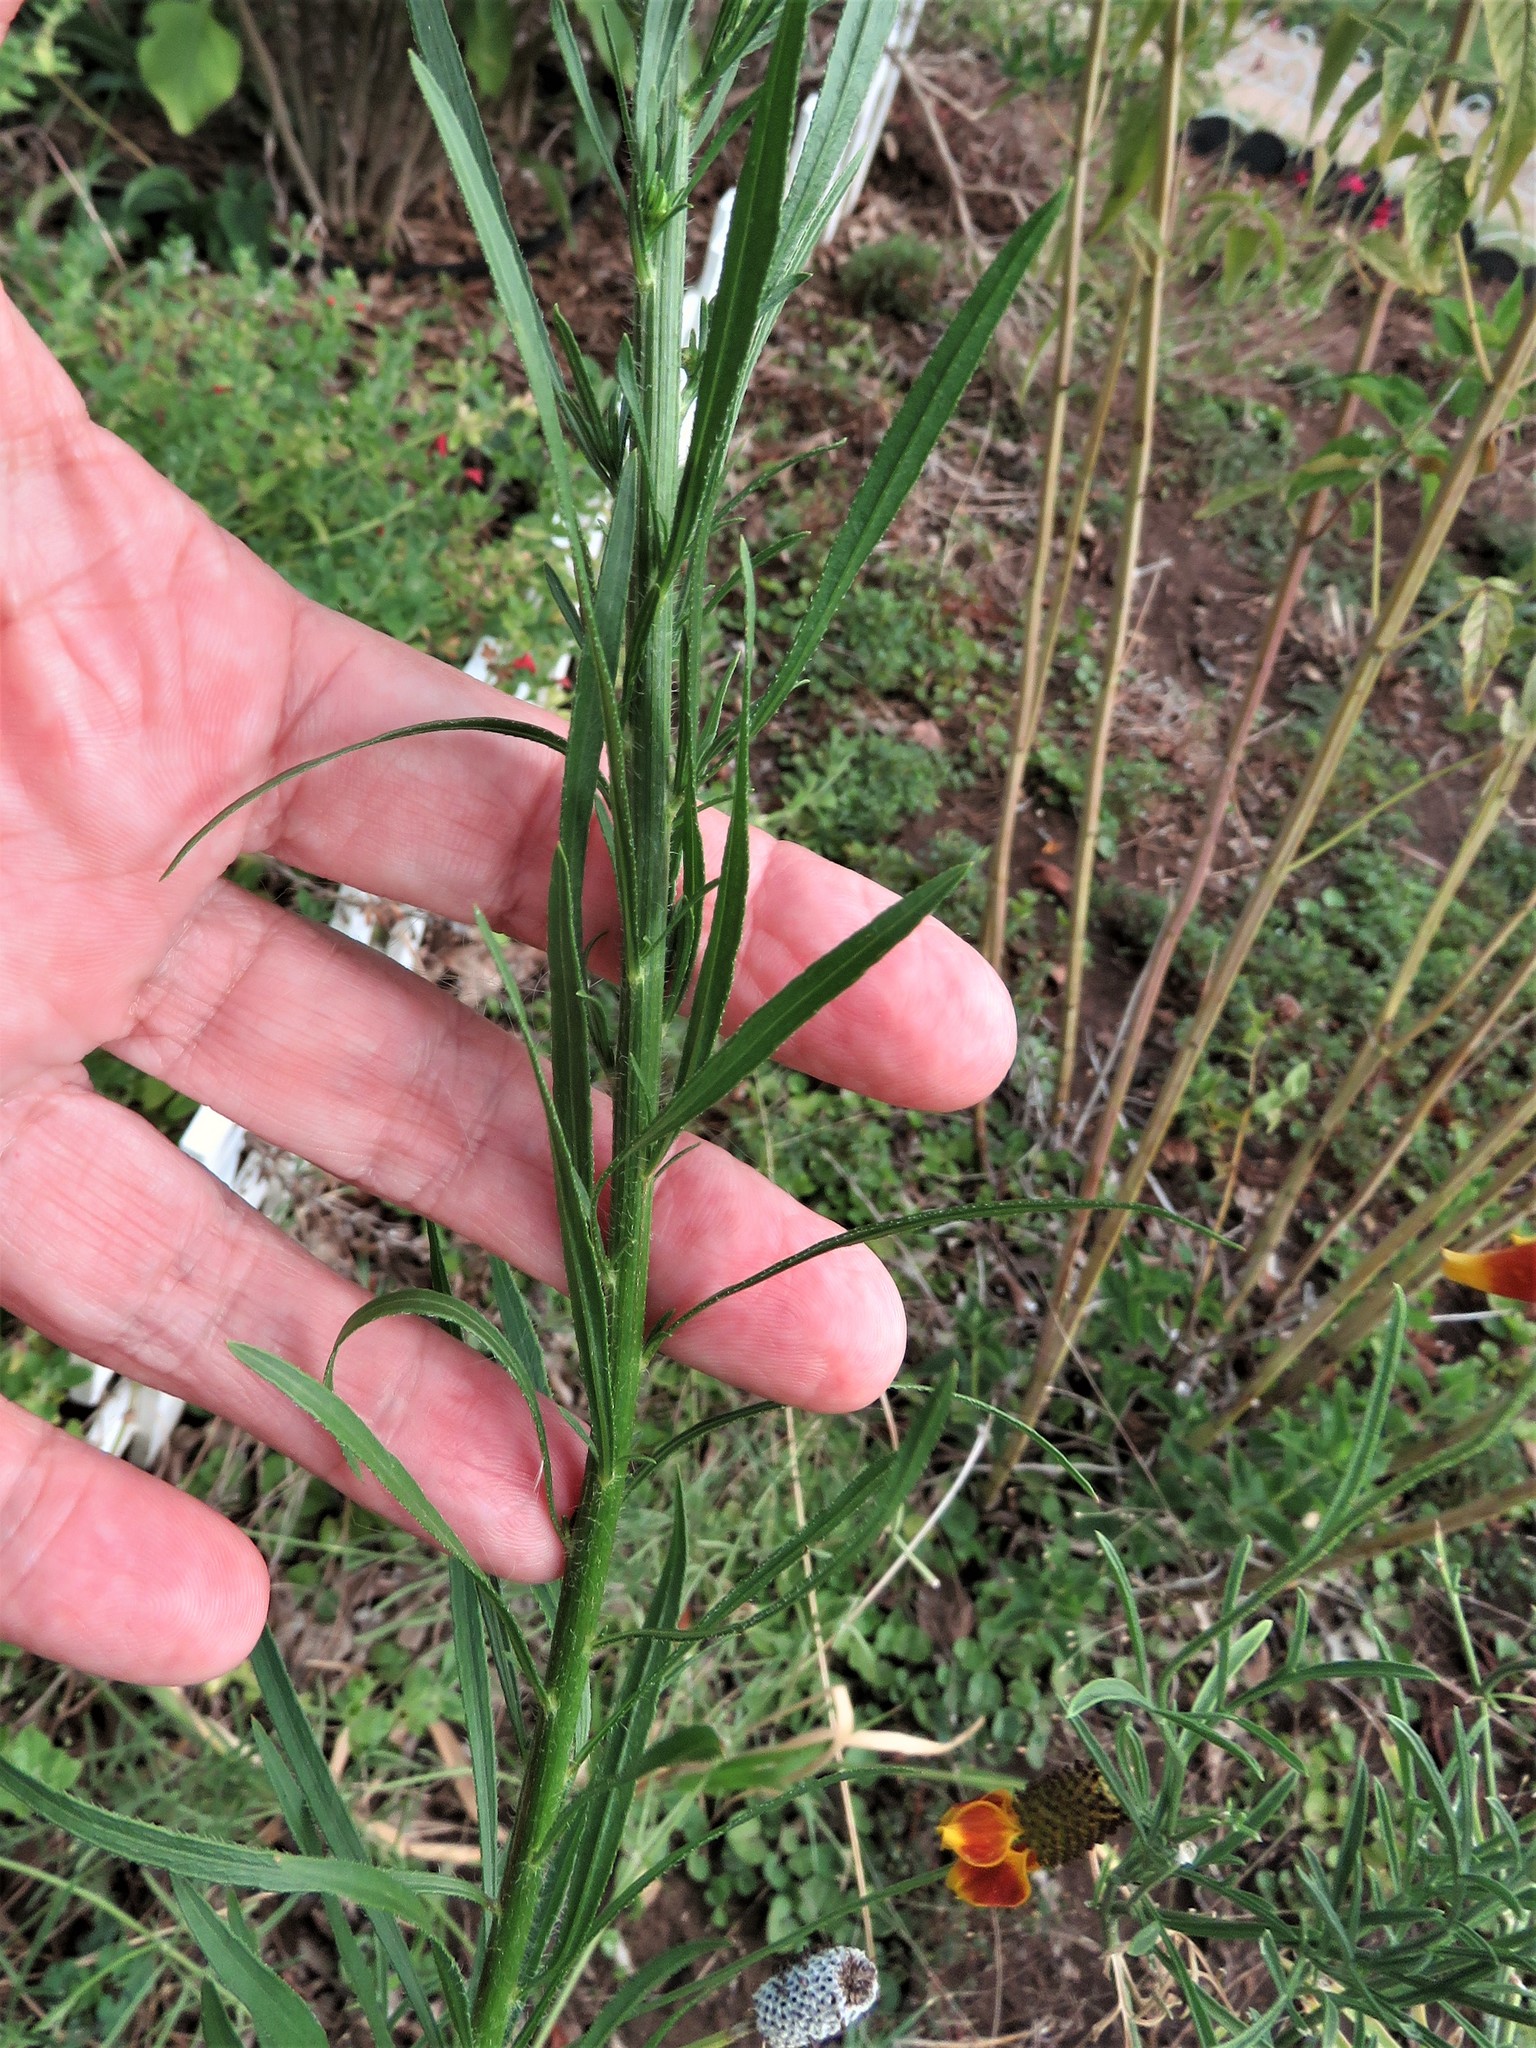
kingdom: Plantae
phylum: Tracheophyta
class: Magnoliopsida
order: Asterales
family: Asteraceae
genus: Erigeron
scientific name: Erigeron canadensis
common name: Canadian fleabane
